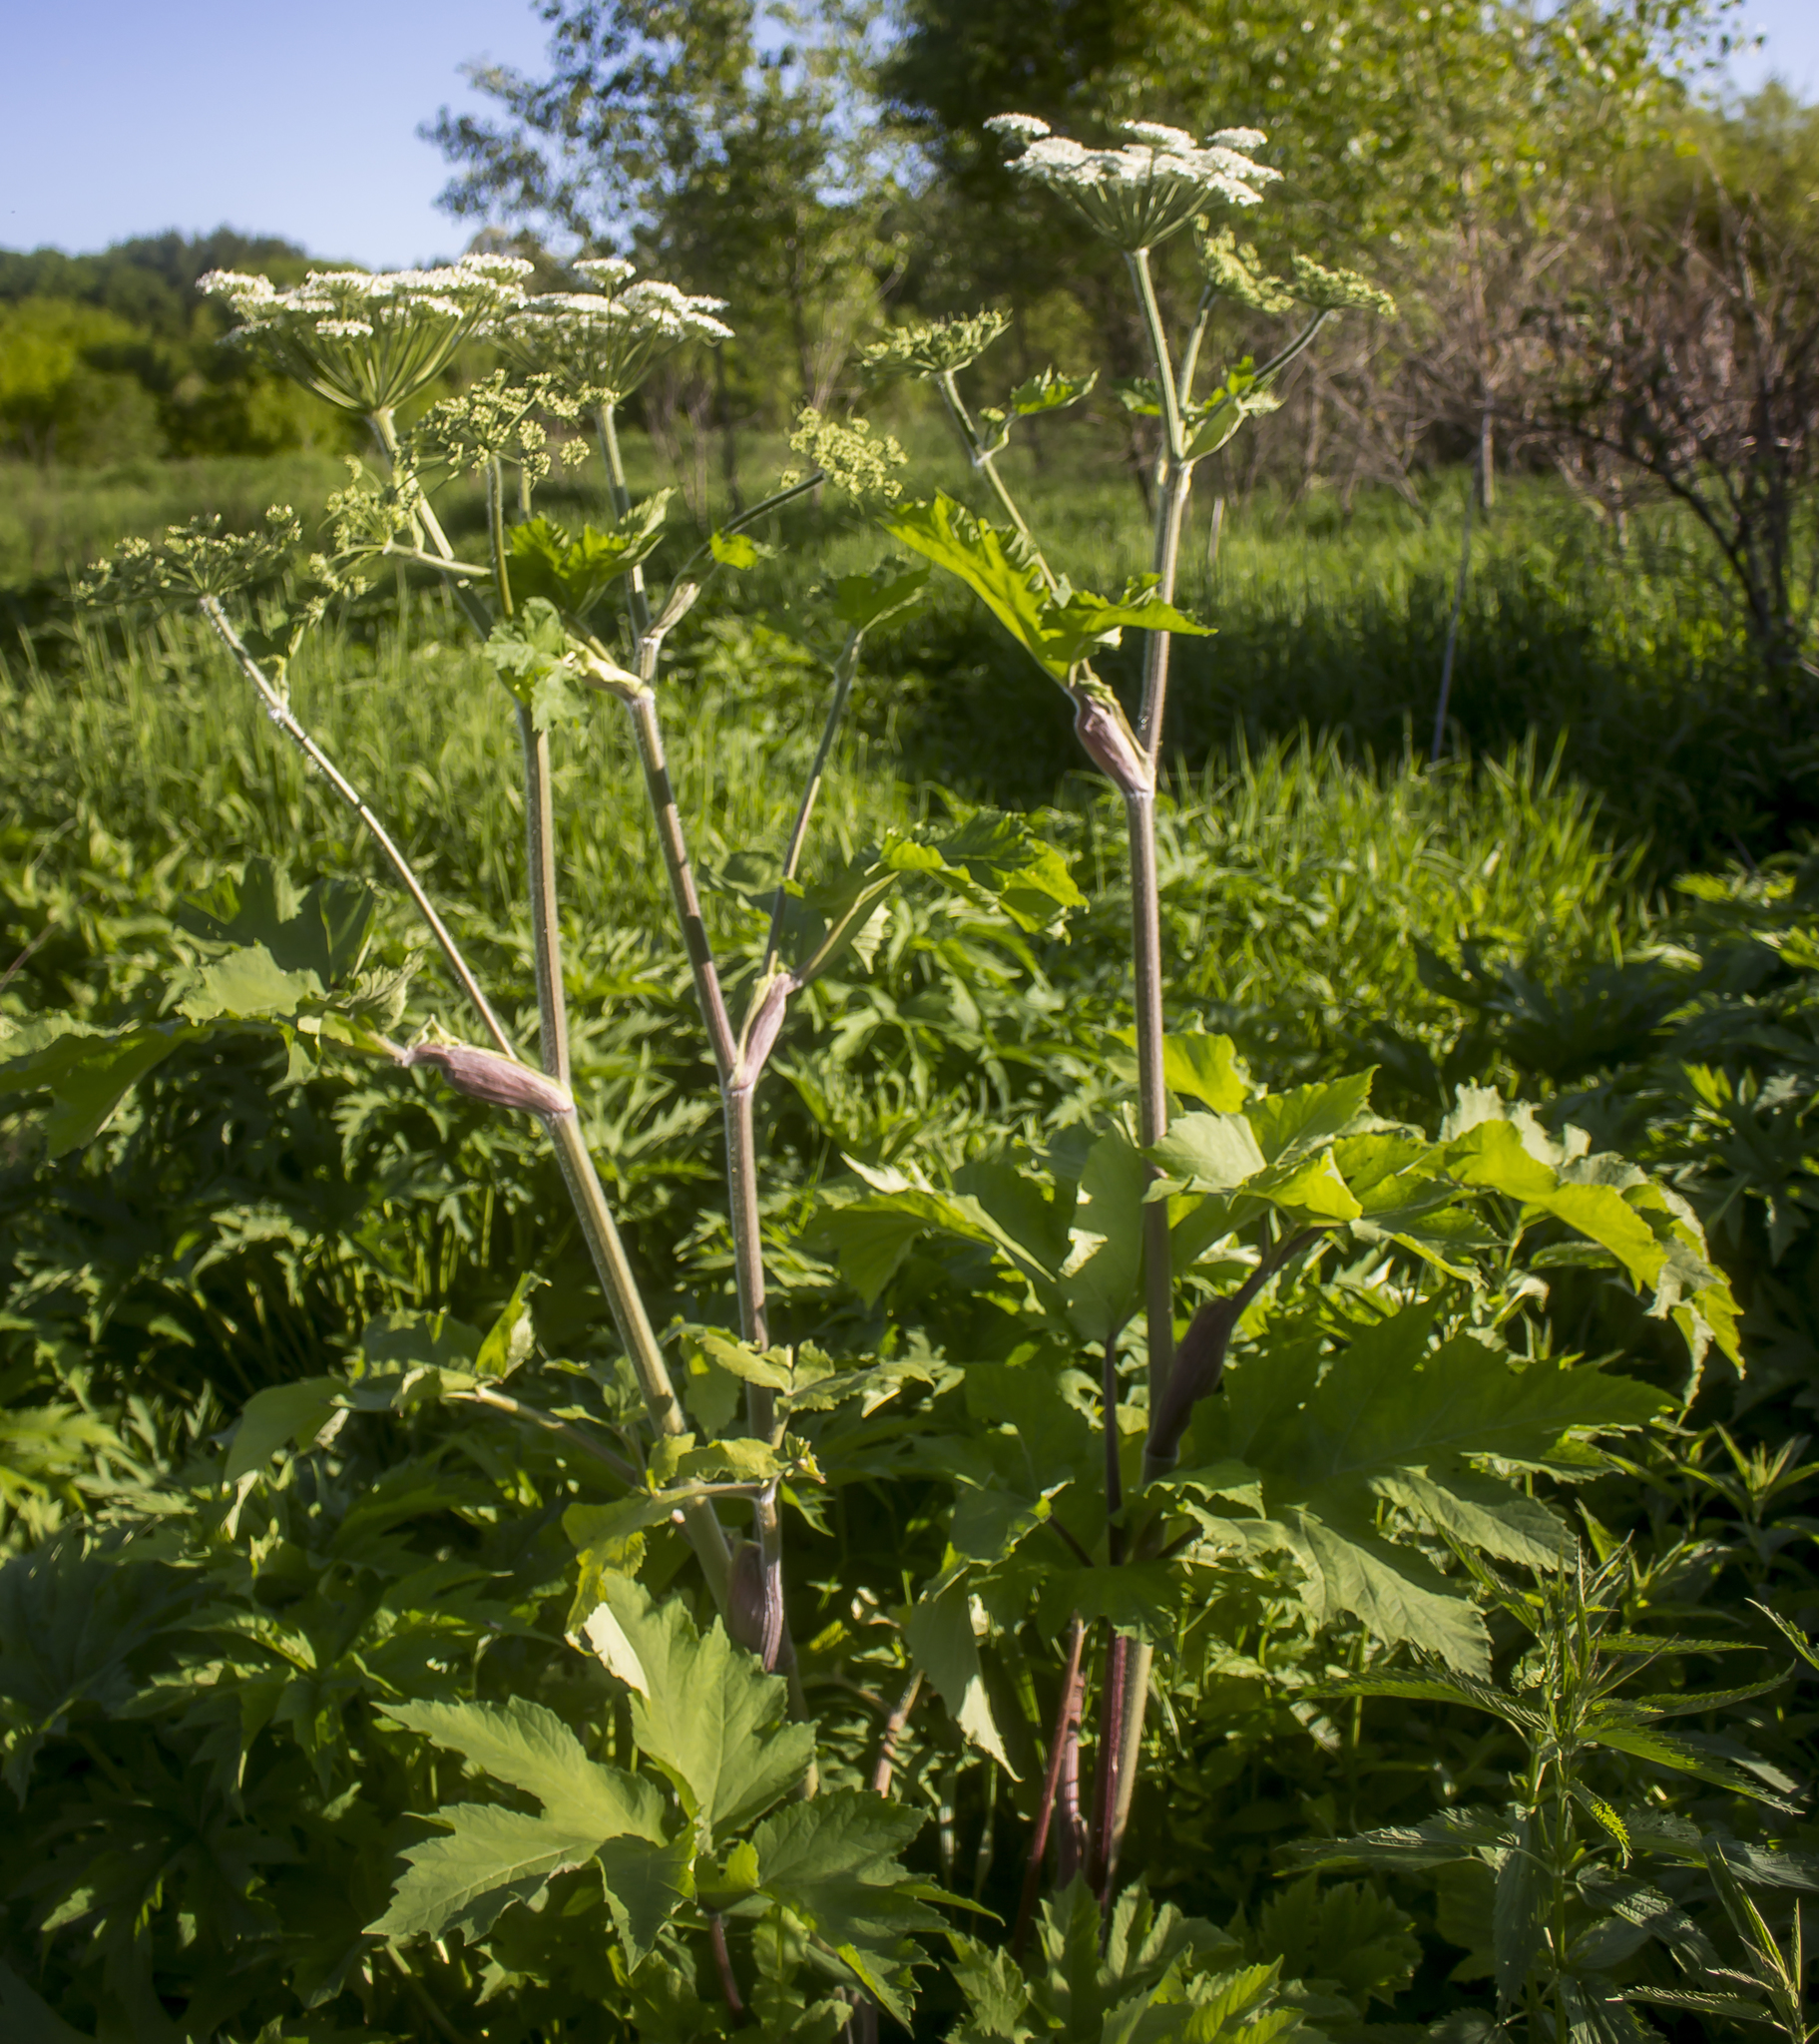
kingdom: Plantae
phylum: Tracheophyta
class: Magnoliopsida
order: Apiales
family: Apiaceae
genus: Heracleum
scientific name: Heracleum maximum
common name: American cow parsnip
